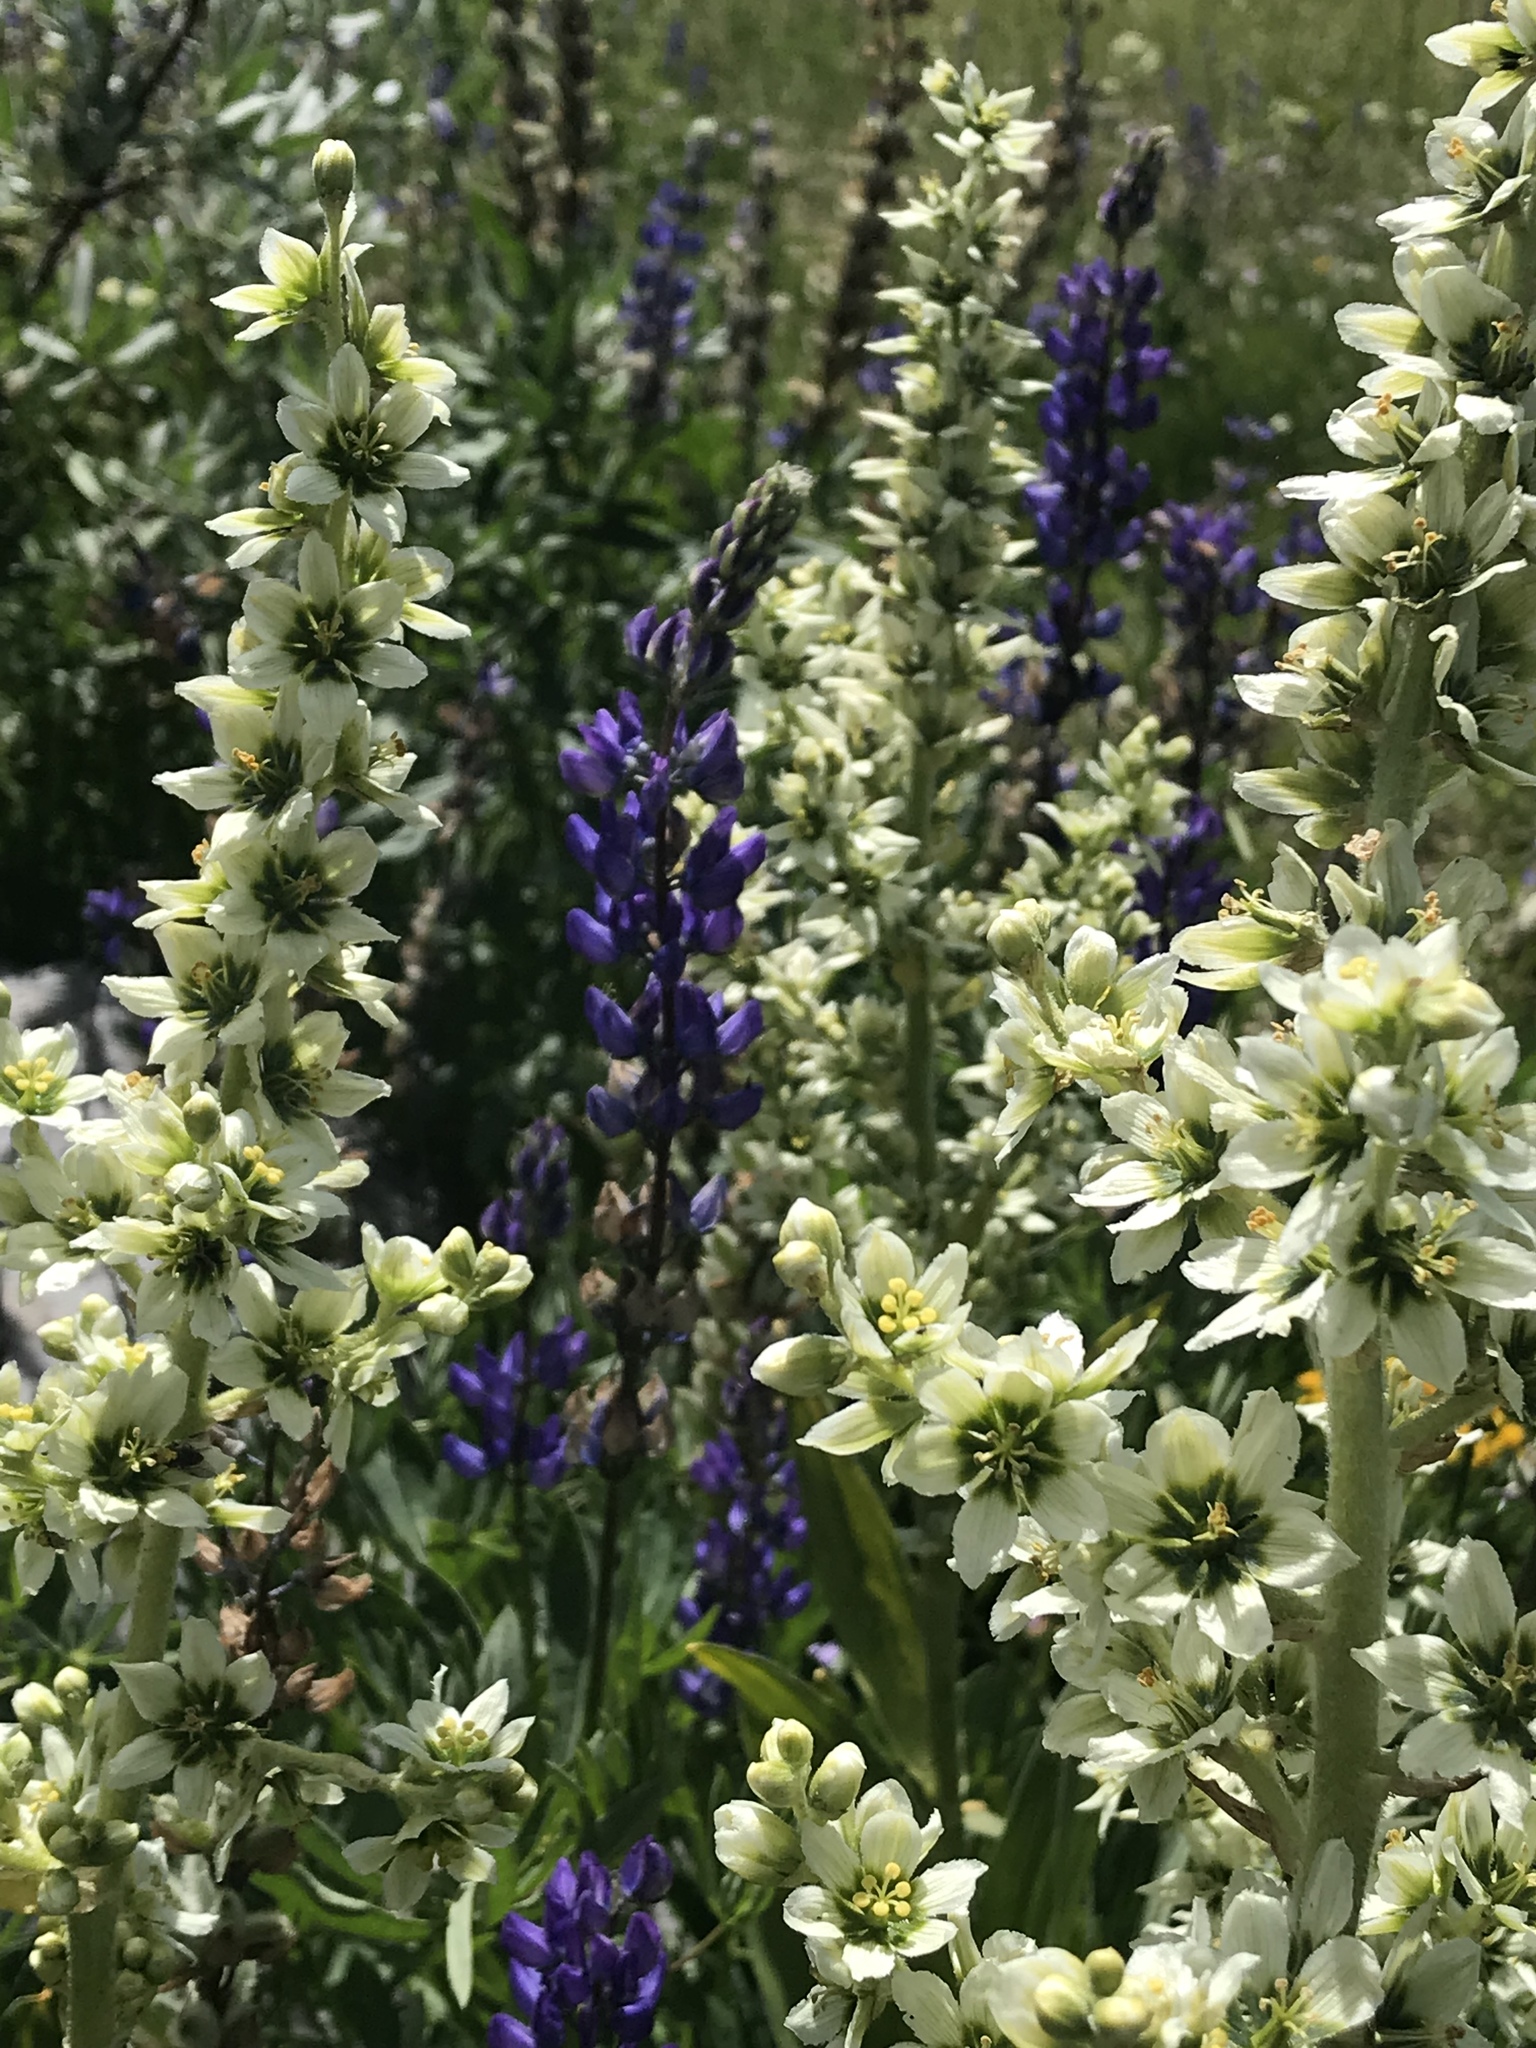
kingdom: Plantae
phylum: Tracheophyta
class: Liliopsida
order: Liliales
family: Melanthiaceae
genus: Veratrum
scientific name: Veratrum californicum
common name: California veratrum
